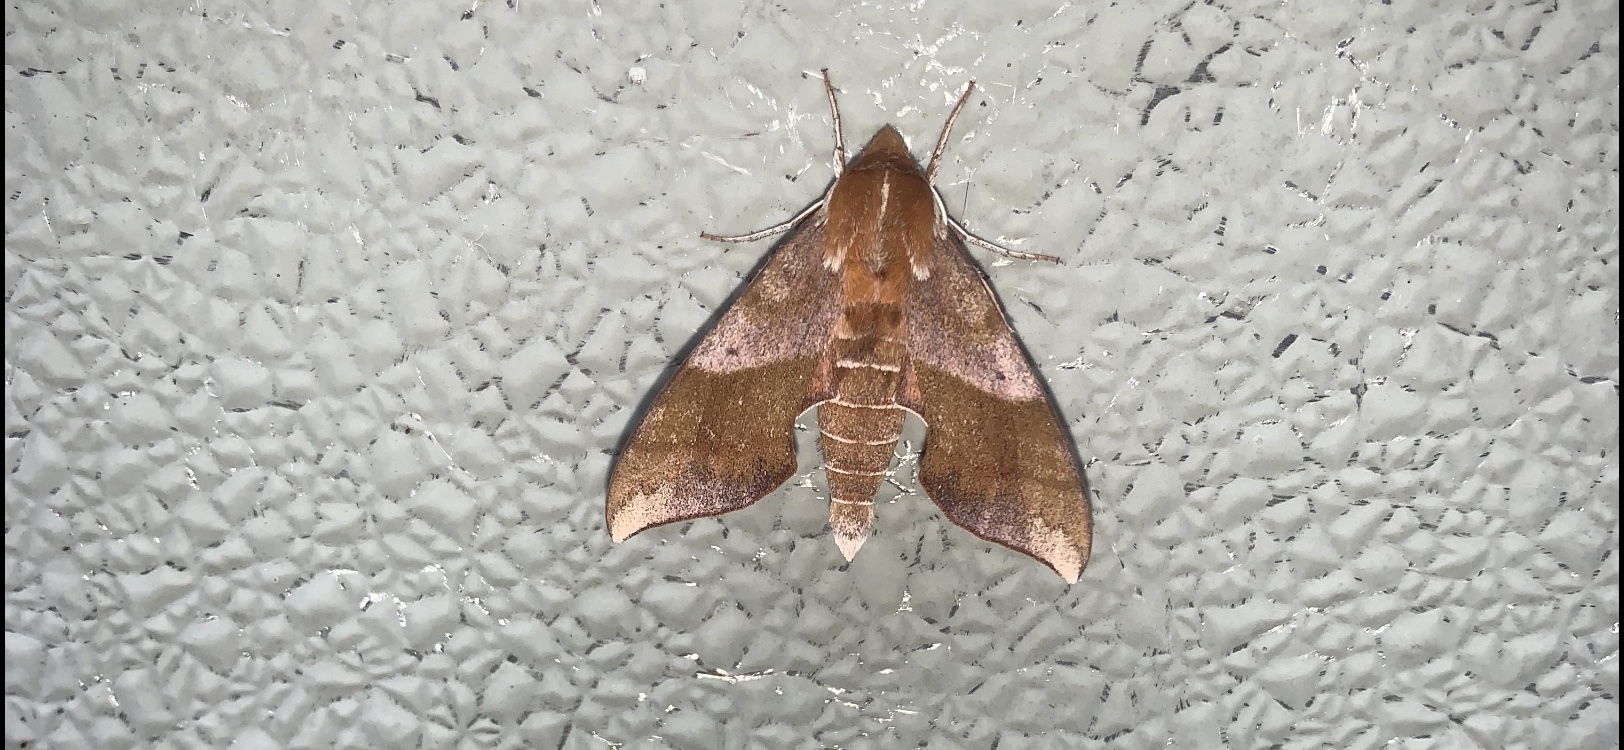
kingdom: Animalia
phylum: Arthropoda
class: Insecta
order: Lepidoptera
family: Sphingidae
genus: Darapsa
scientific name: Darapsa choerilus
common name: Azalea sphinx
